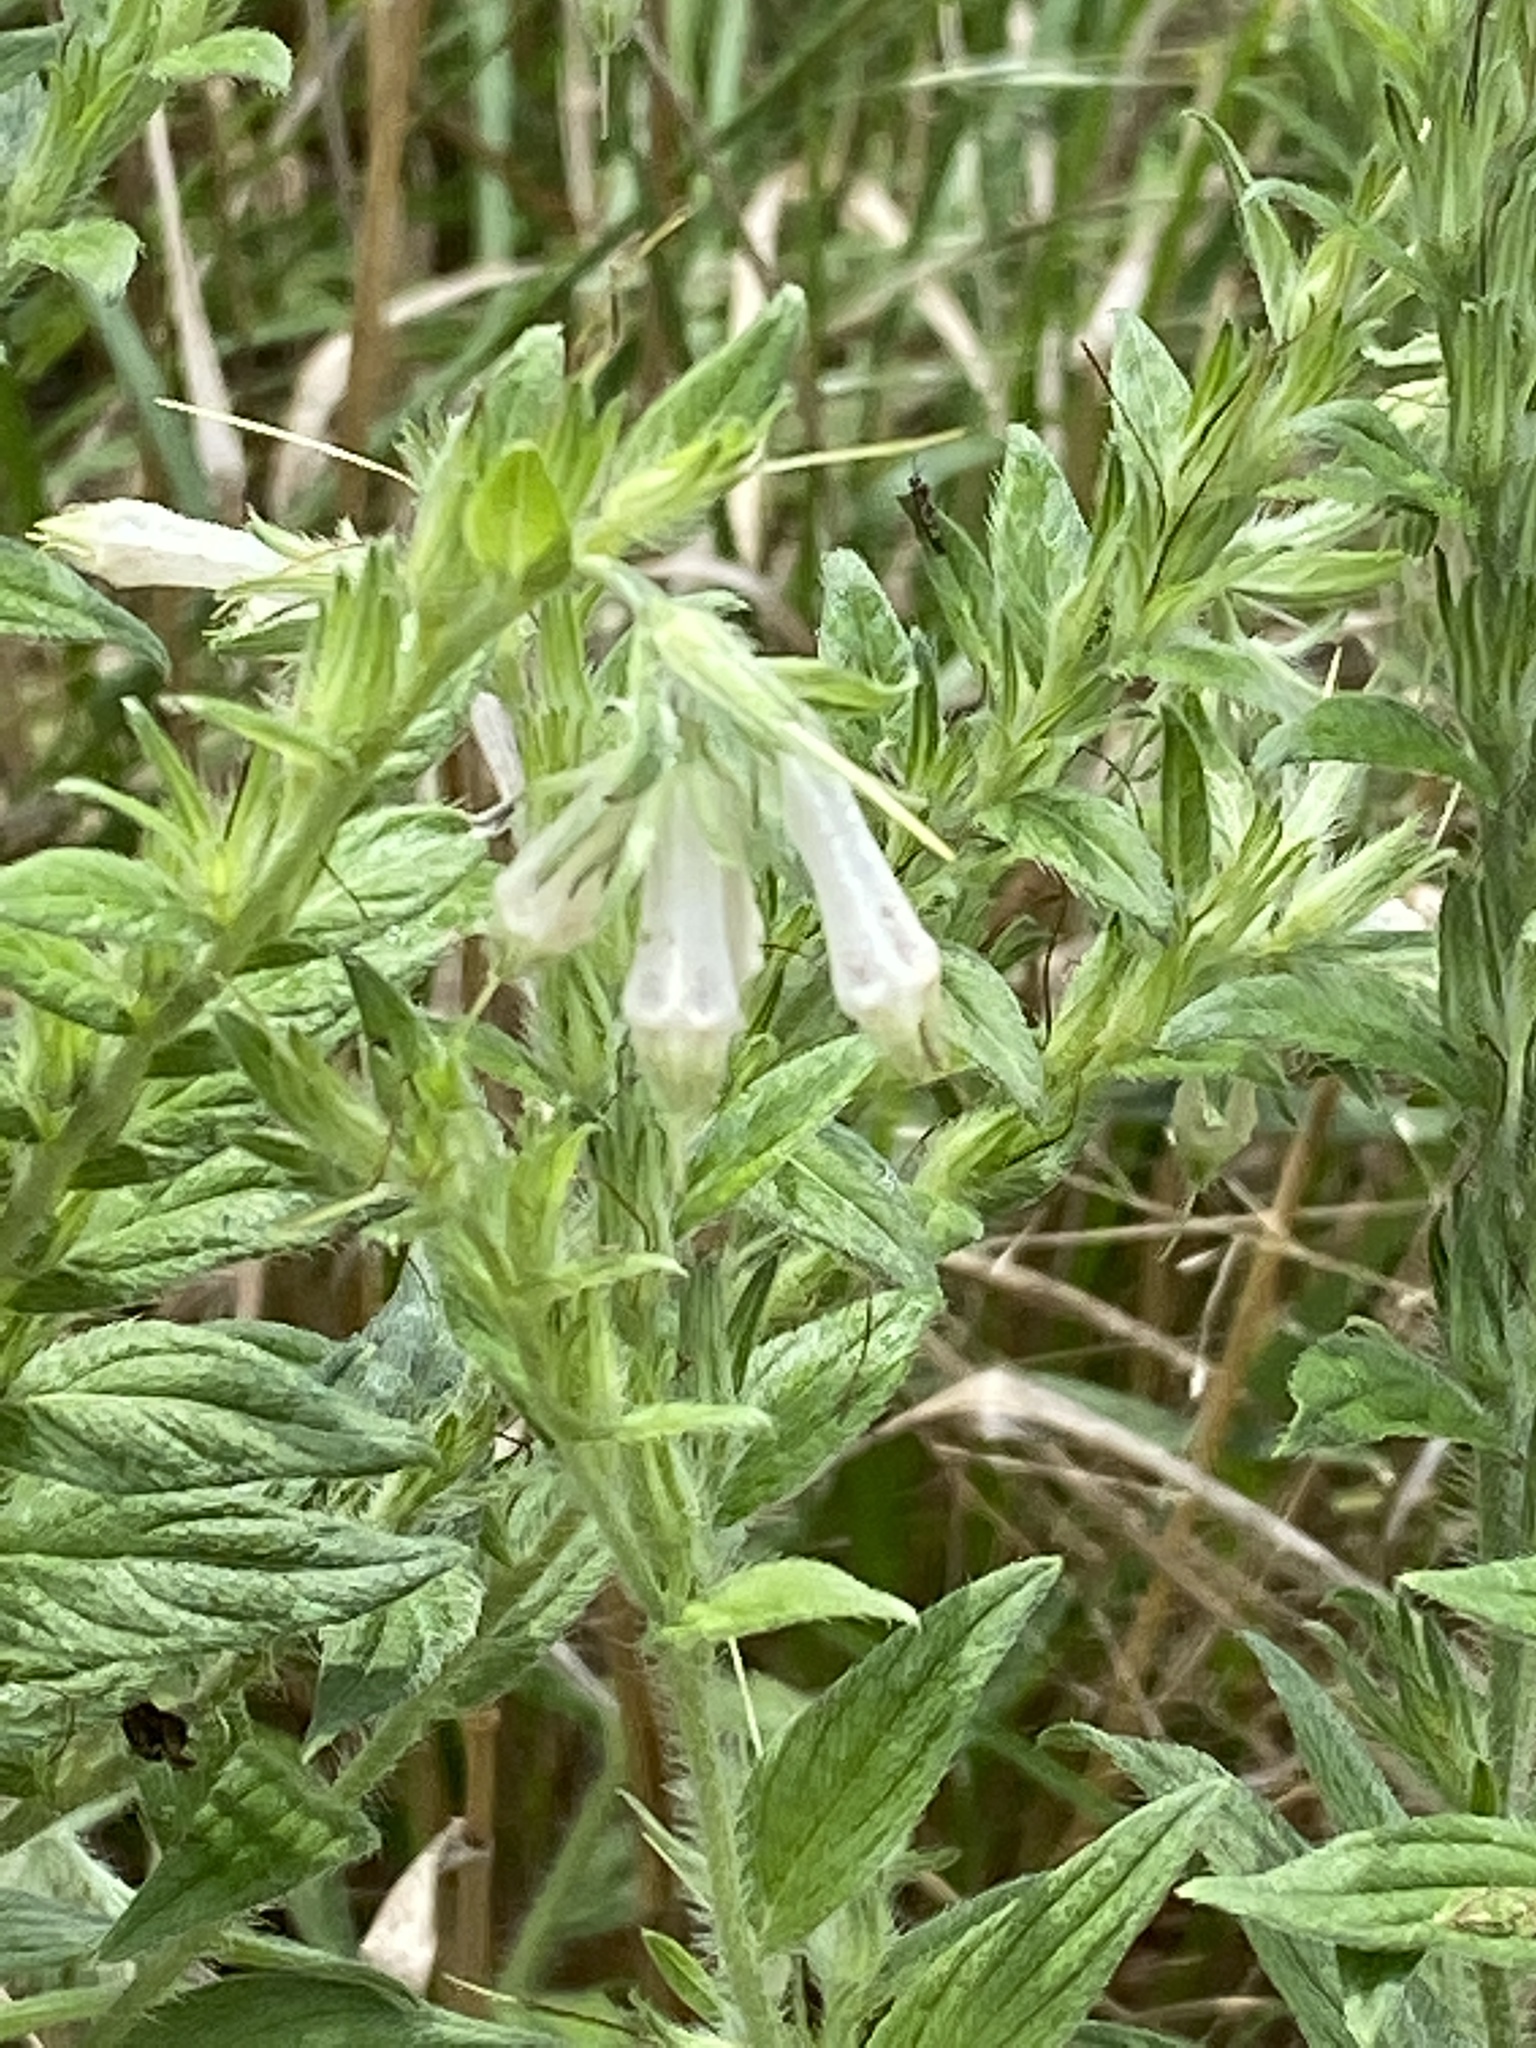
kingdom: Plantae
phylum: Tracheophyta
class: Magnoliopsida
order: Boraginales
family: Boraginaceae
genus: Lithospermum
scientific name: Lithospermum caroliniense
